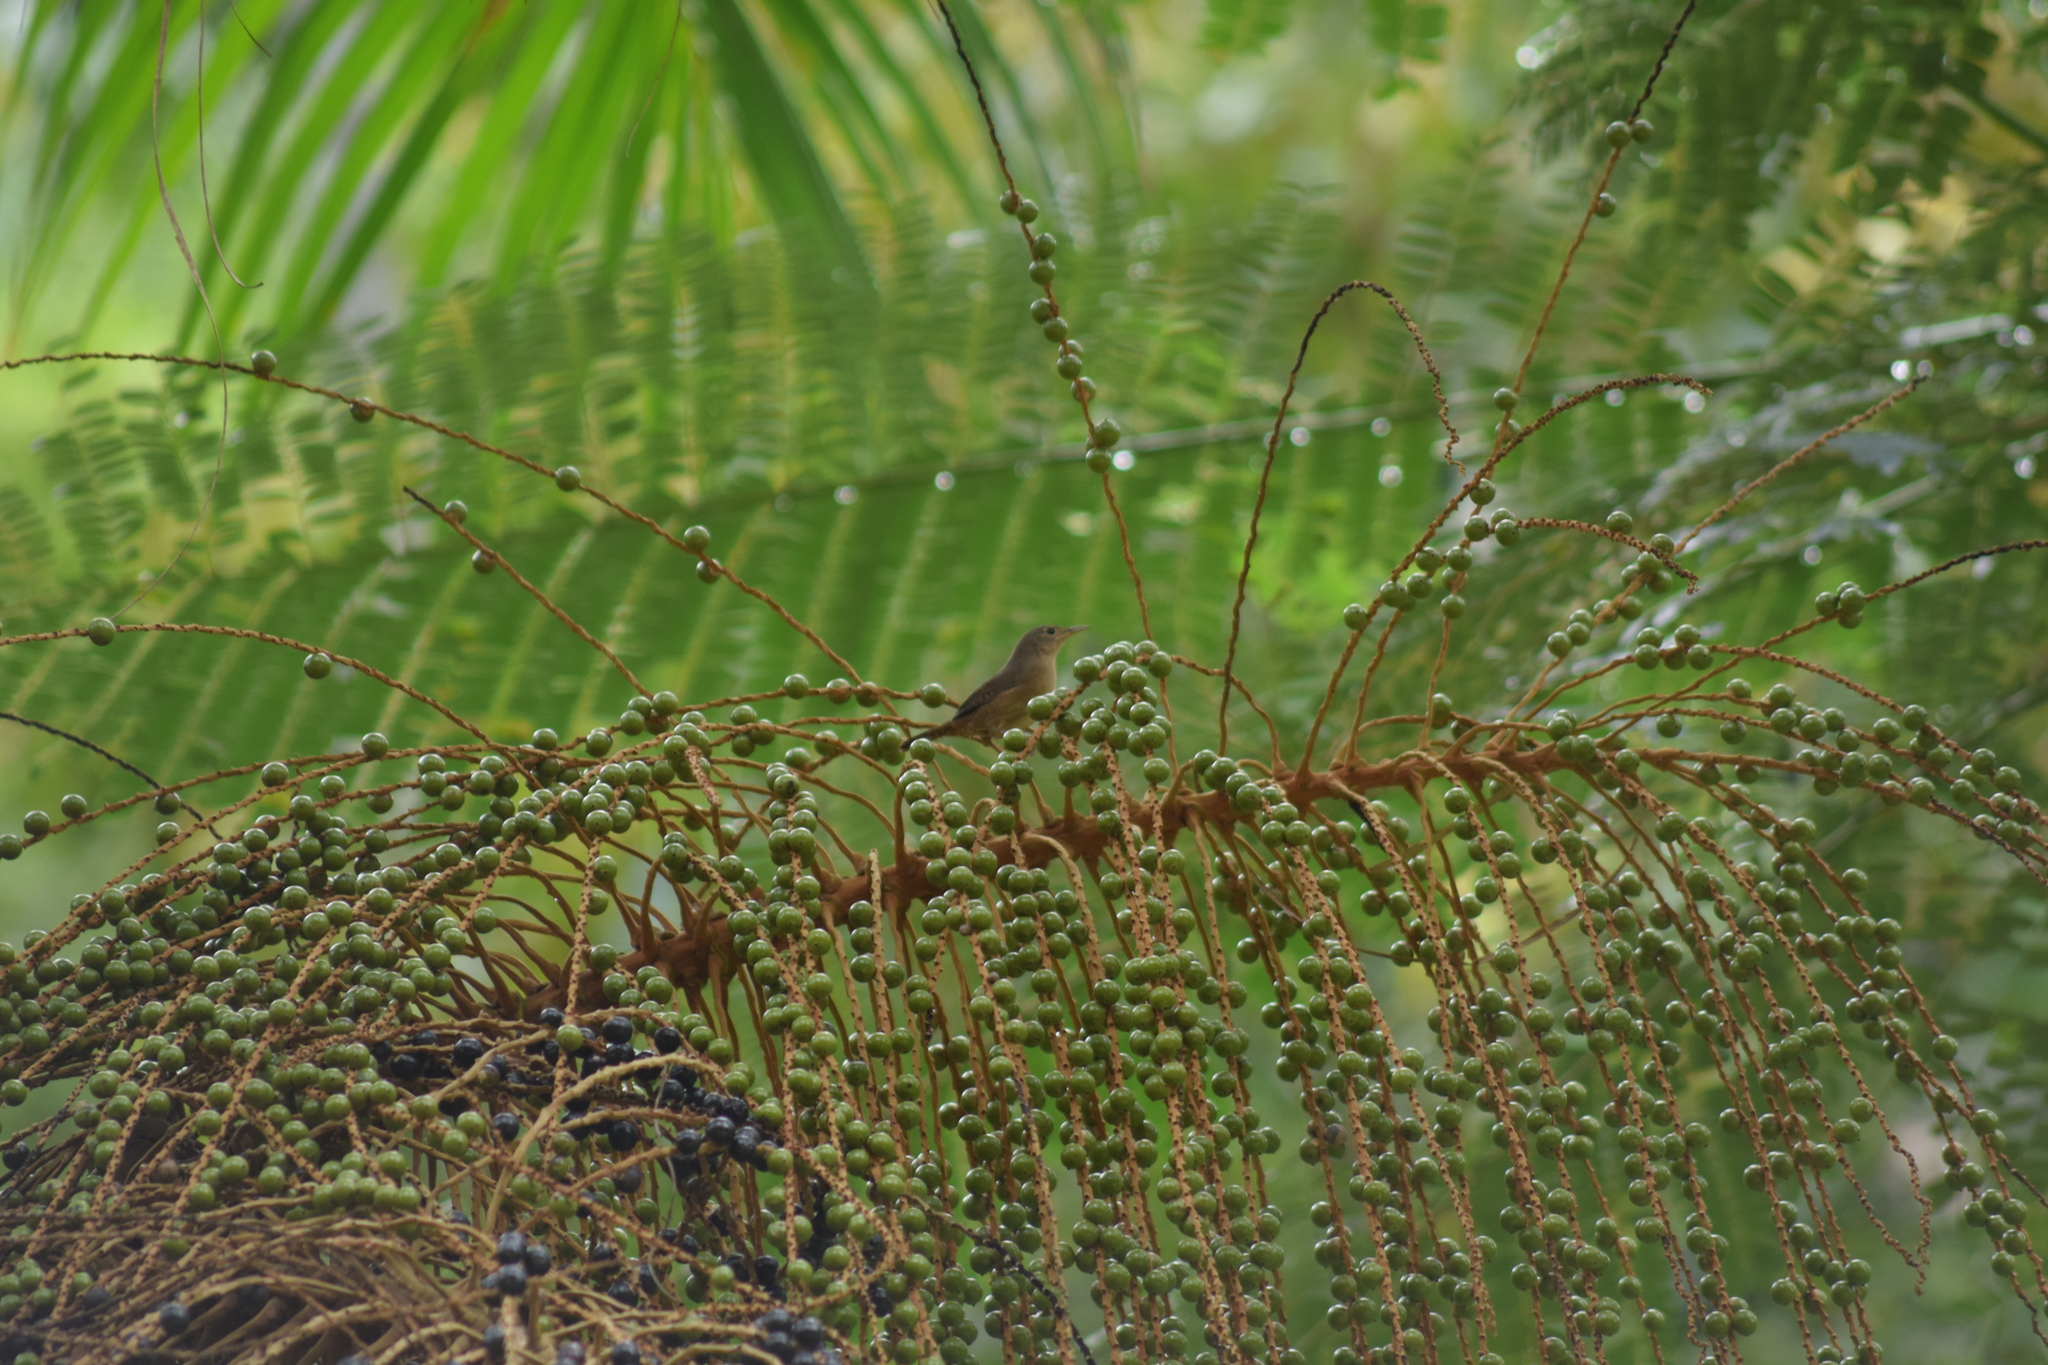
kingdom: Animalia
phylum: Chordata
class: Aves
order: Passeriformes
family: Troglodytidae
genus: Troglodytes
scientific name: Troglodytes aedon
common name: House wren
